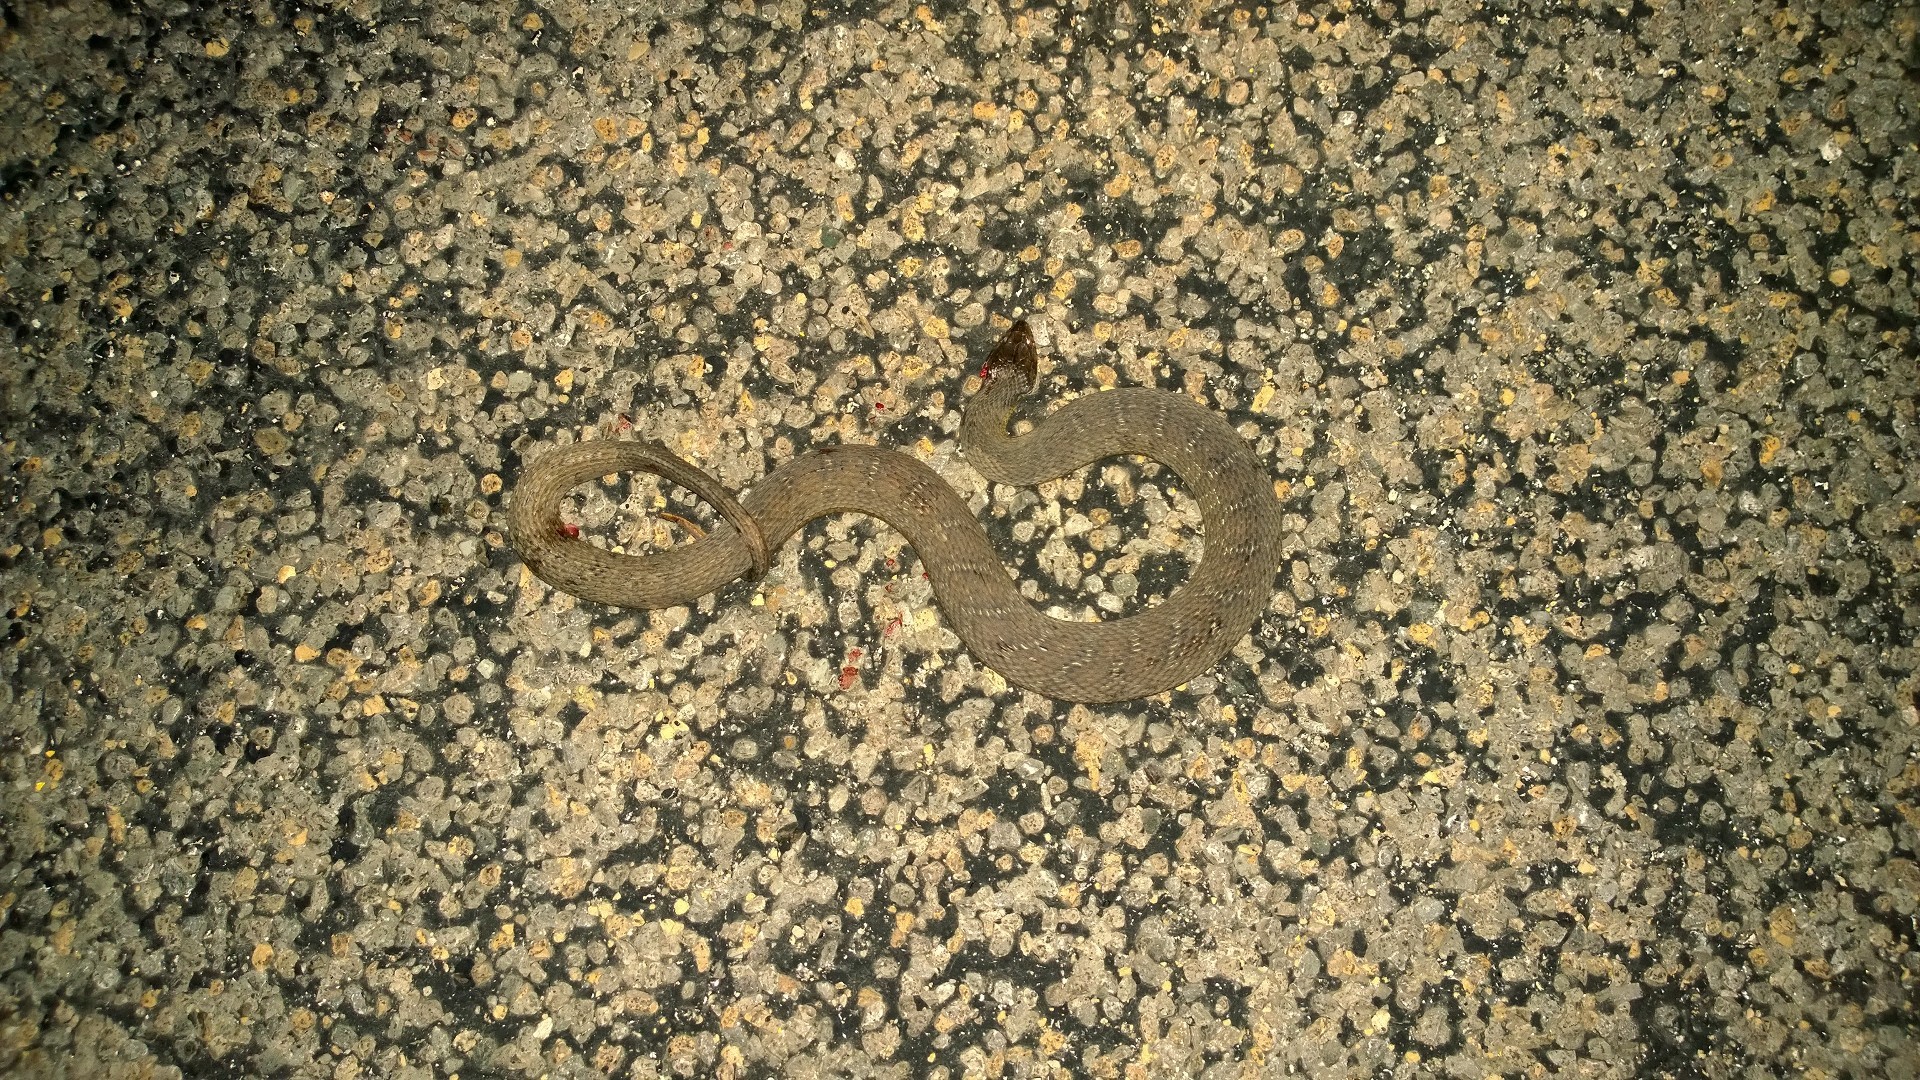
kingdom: Animalia
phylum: Chordata
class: Squamata
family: Colubridae
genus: Nerodia
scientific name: Nerodia erythrogaster
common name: Plainbelly water snake
